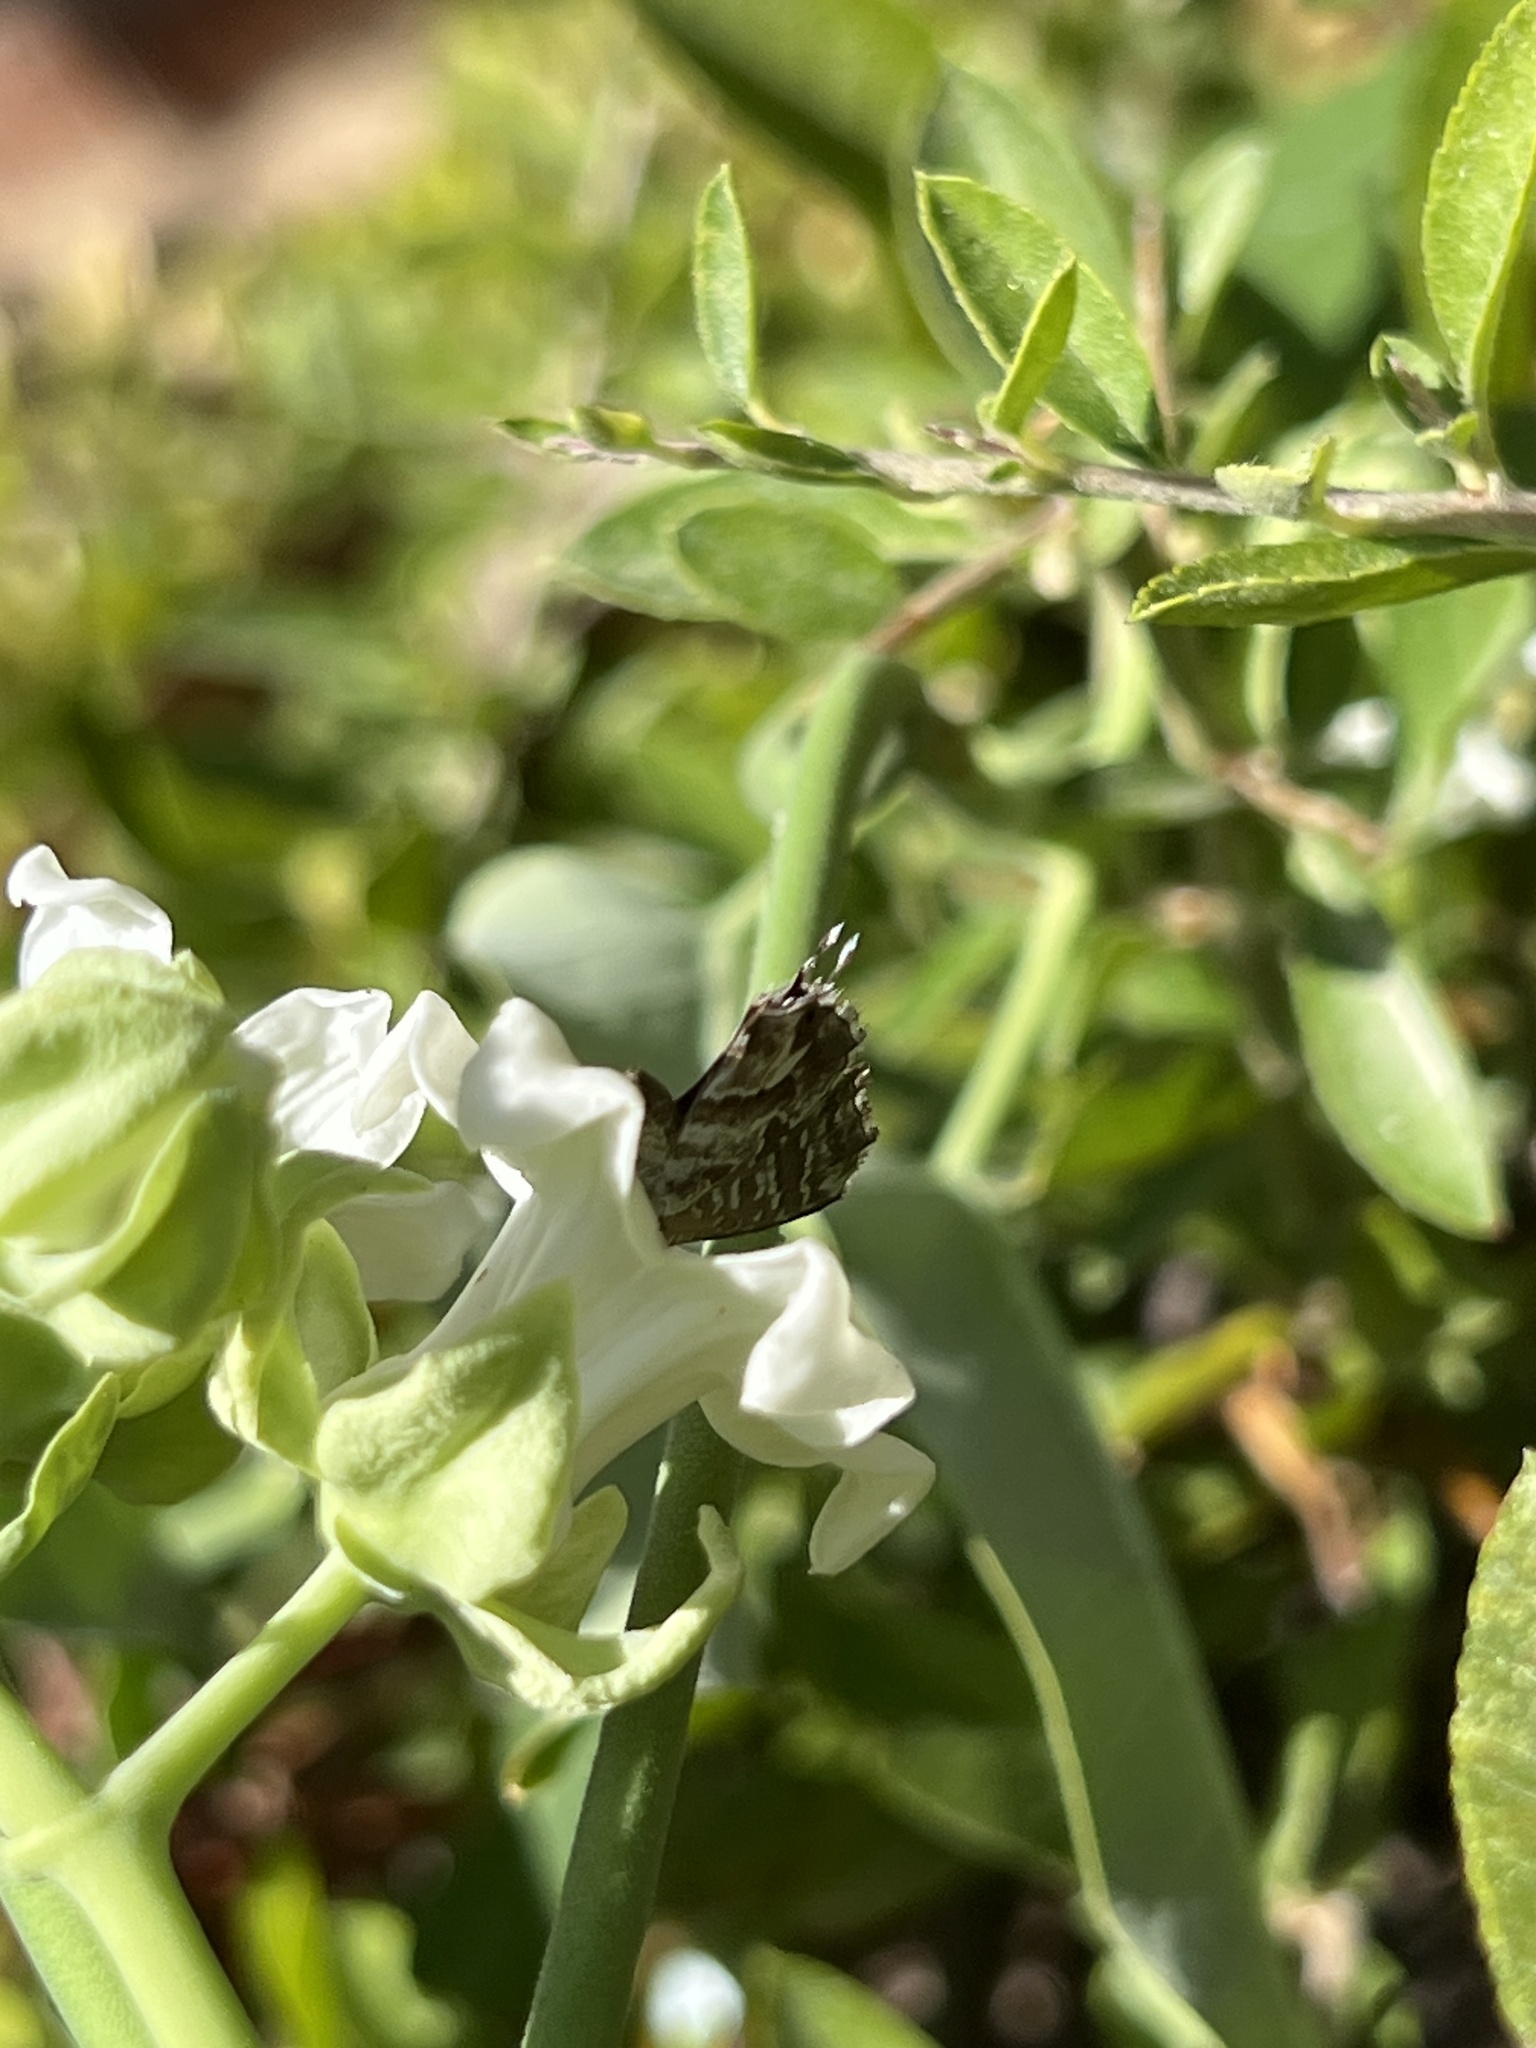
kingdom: Animalia
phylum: Arthropoda
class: Insecta
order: Lepidoptera
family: Lycaenidae
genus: Cacyreus
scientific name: Cacyreus marshalli
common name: Geranium bronze
